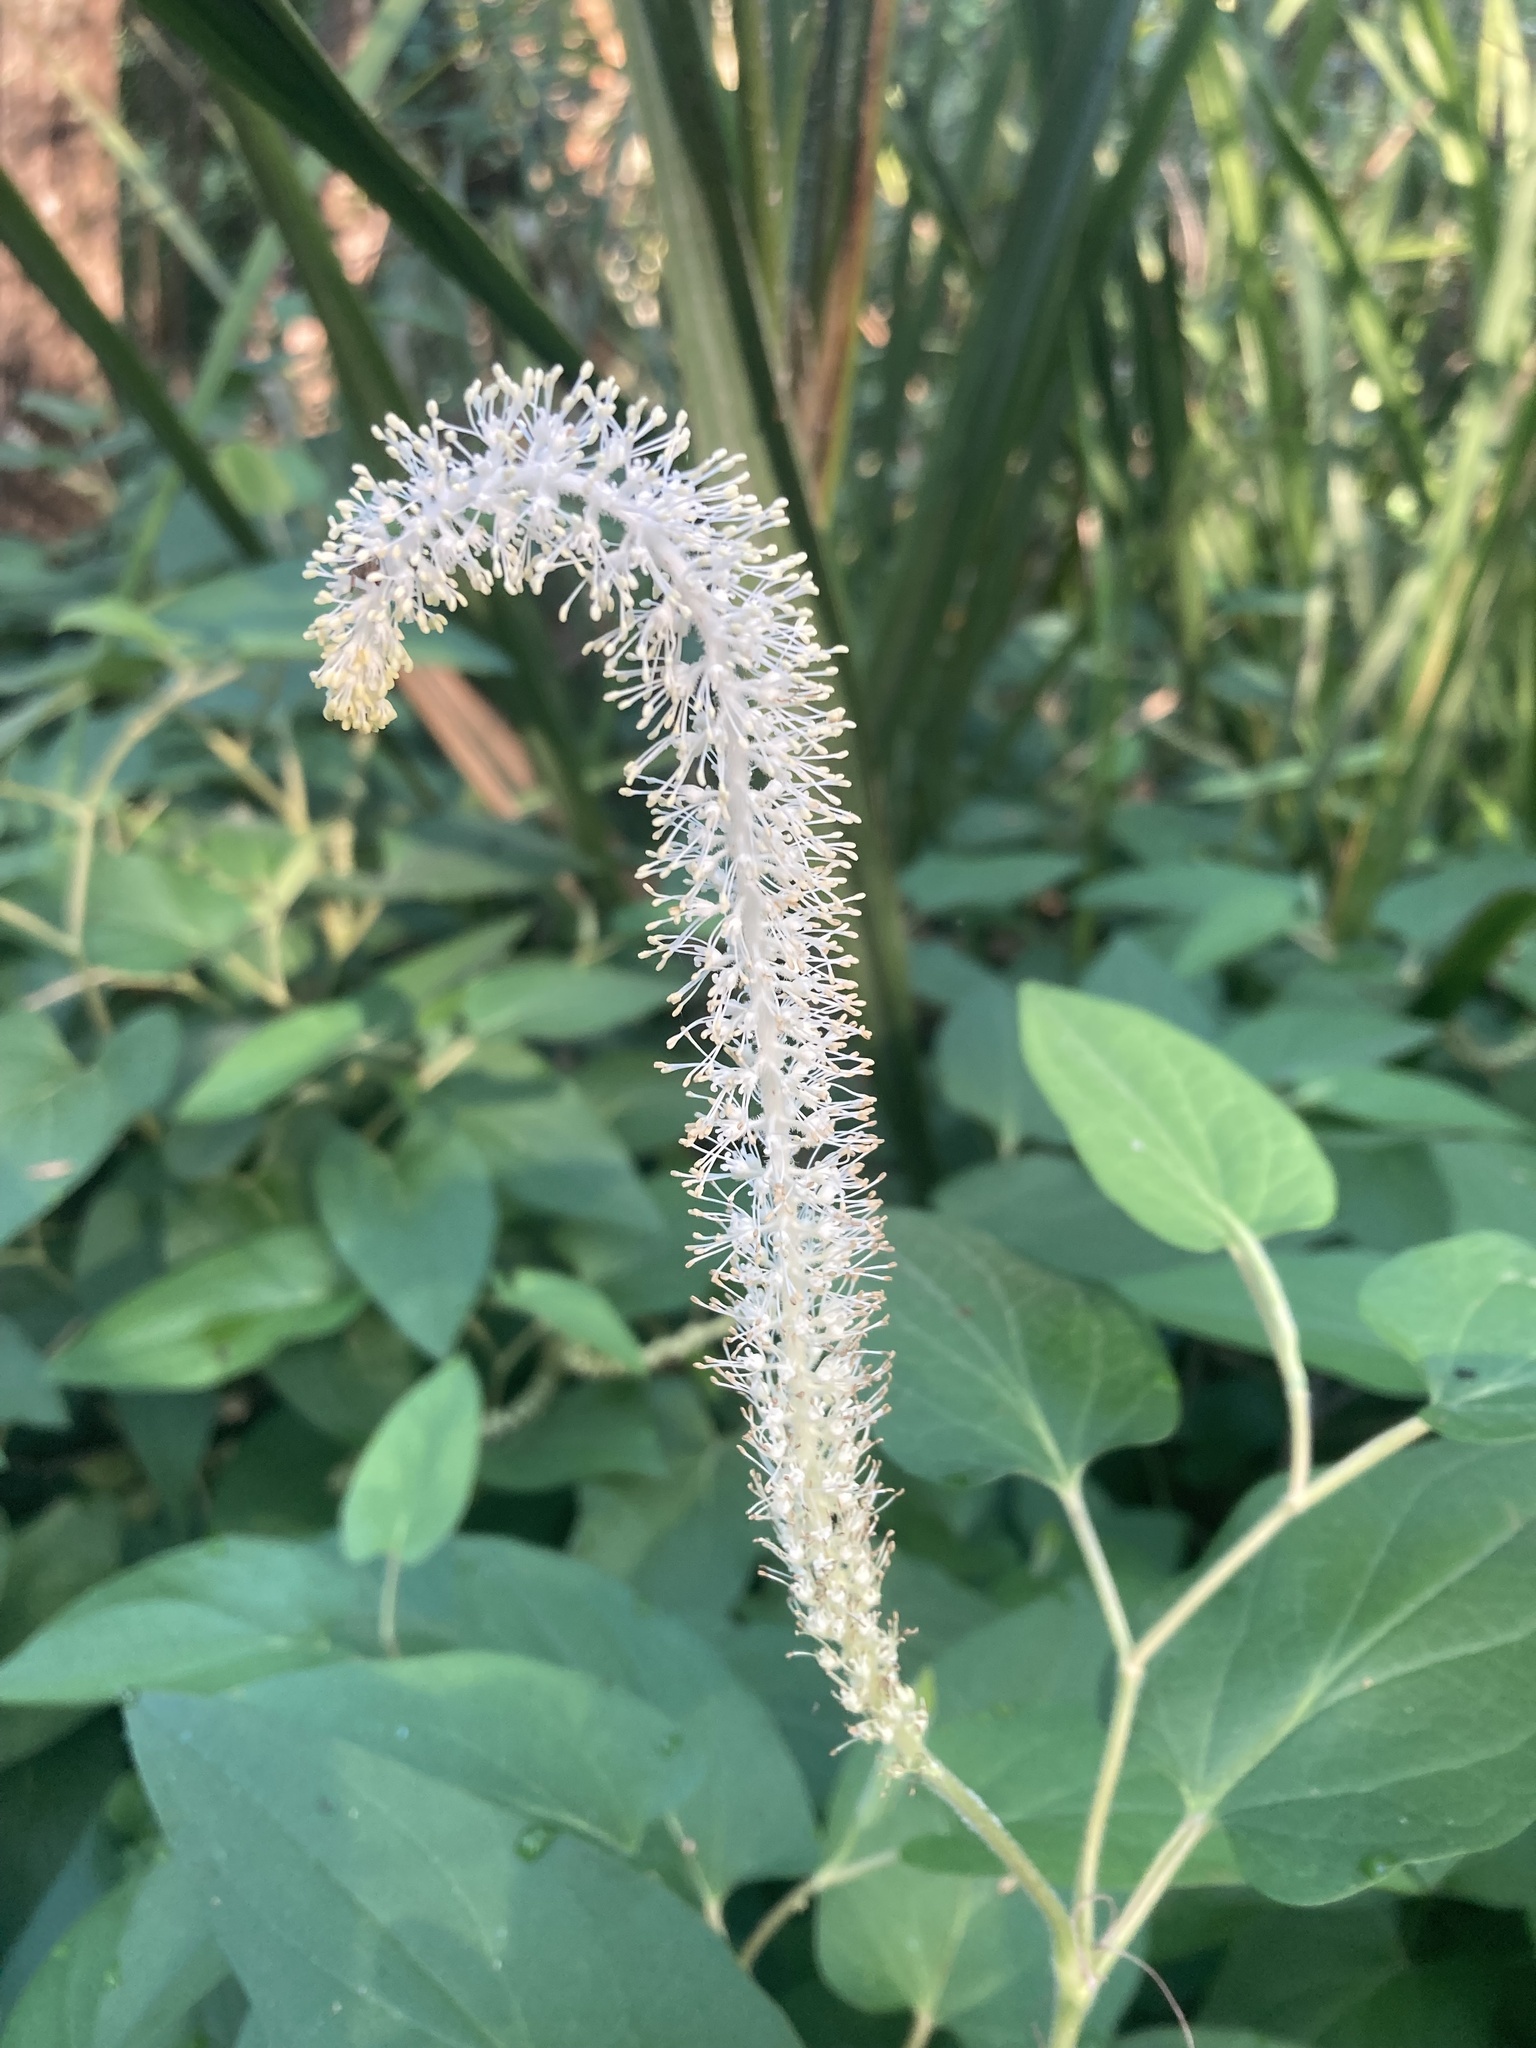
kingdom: Plantae
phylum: Tracheophyta
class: Magnoliopsida
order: Piperales
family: Saururaceae
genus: Saururus
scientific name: Saururus cernuus
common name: Lizard's-tail
